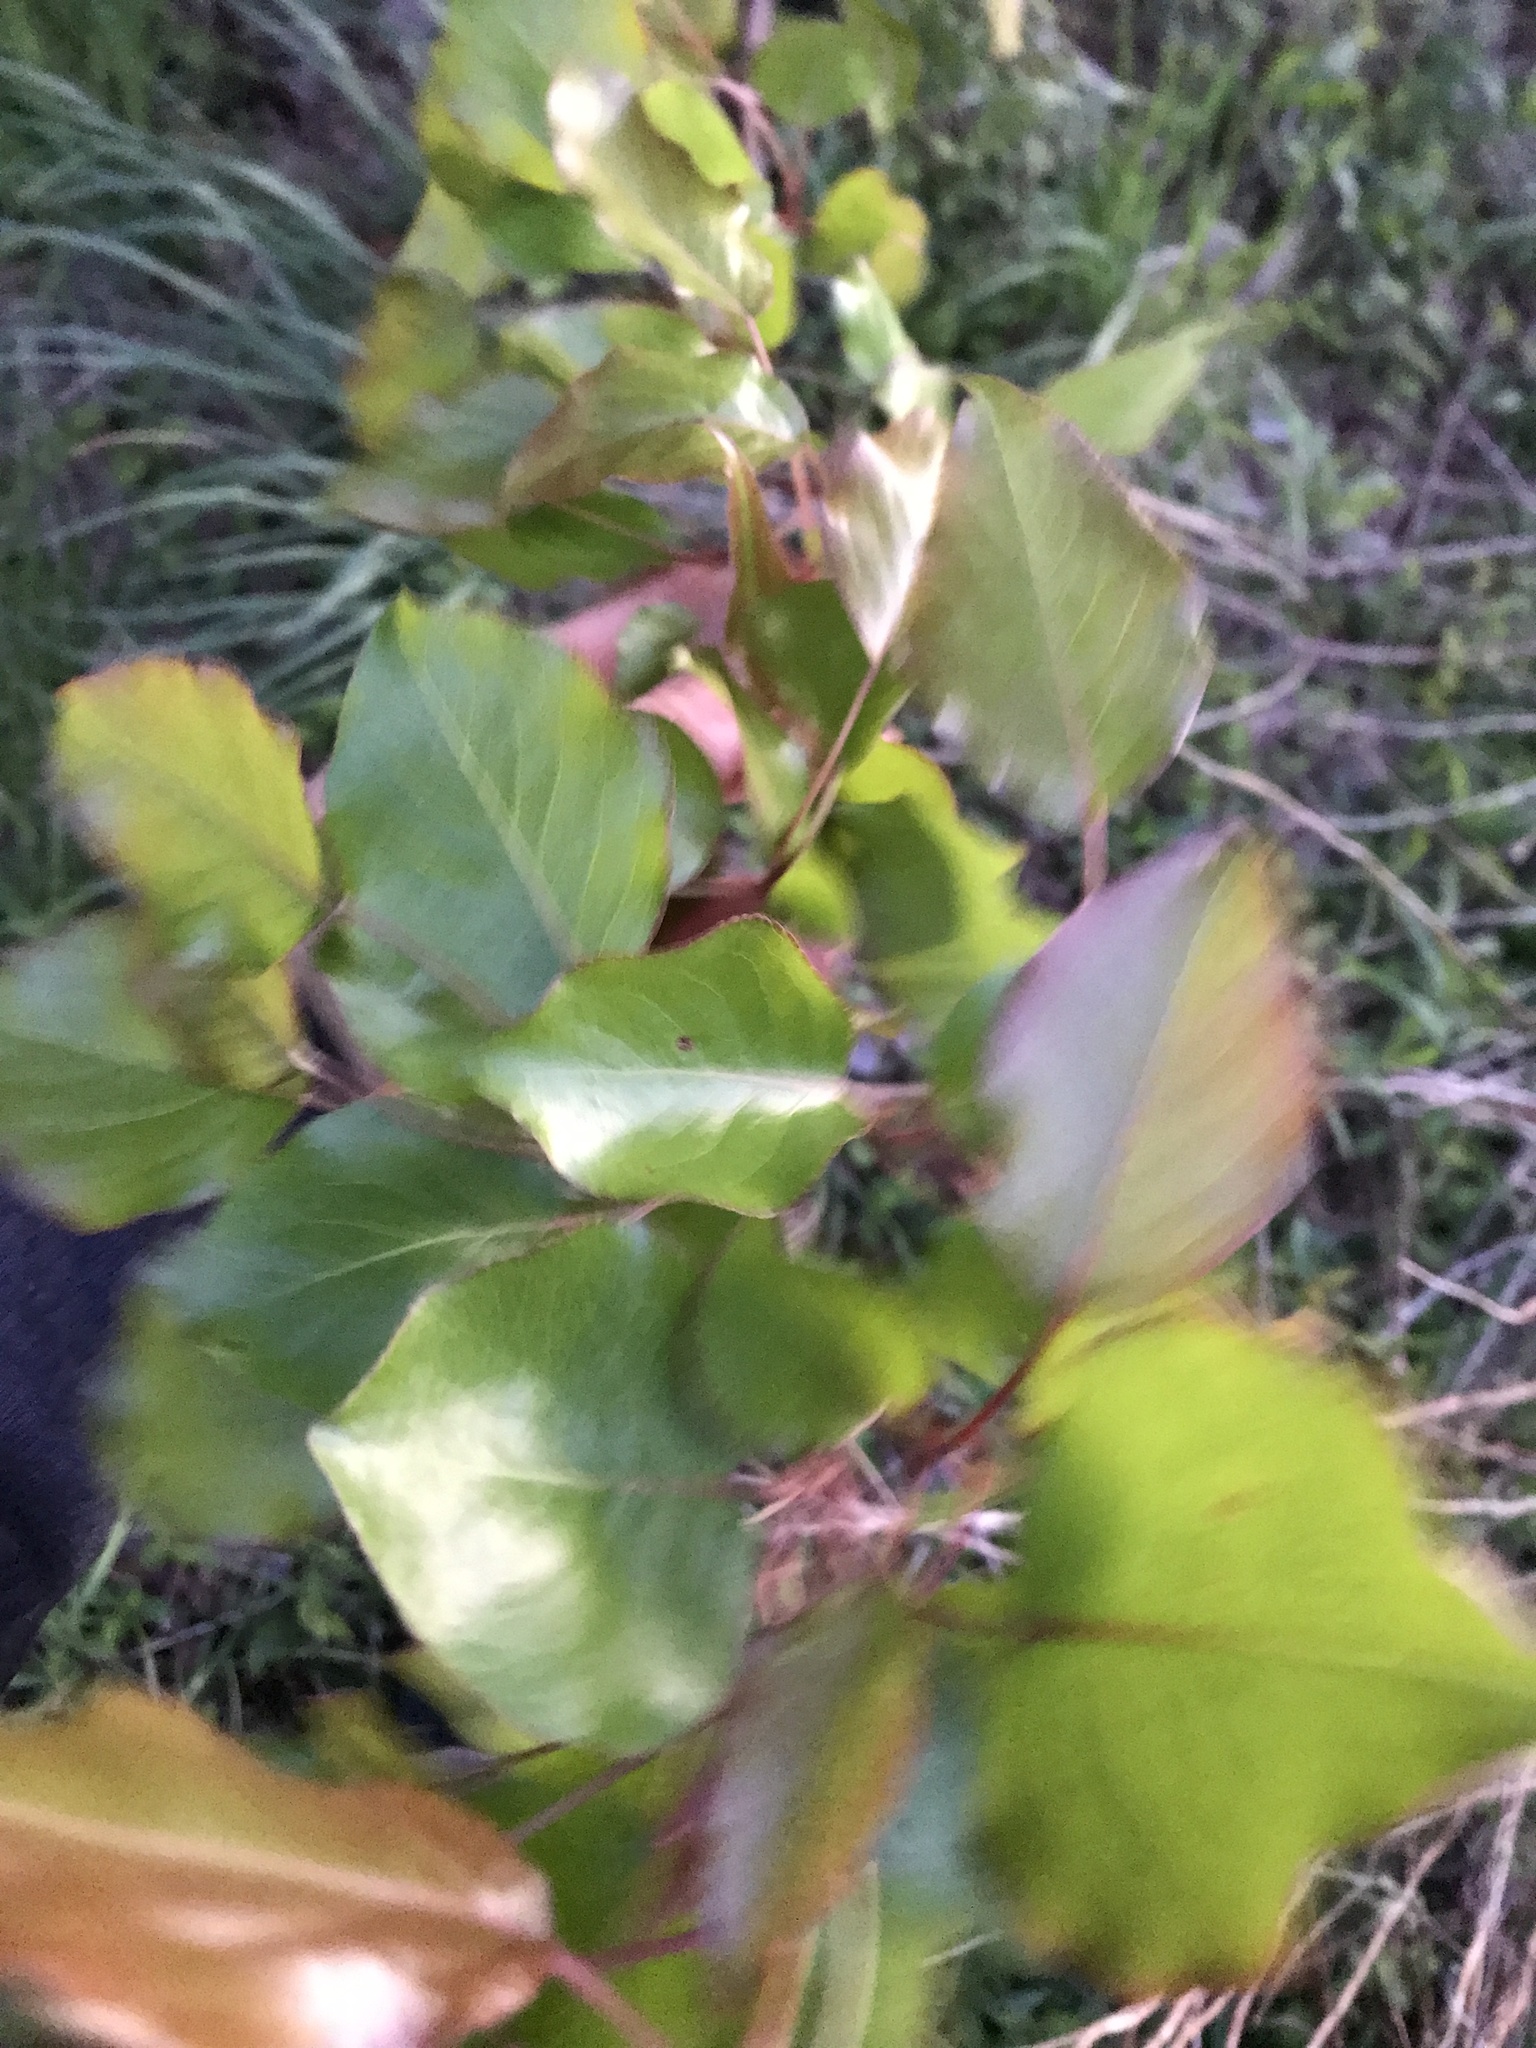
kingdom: Plantae
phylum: Tracheophyta
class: Magnoliopsida
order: Rosales
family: Rosaceae
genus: Pyrus
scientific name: Pyrus calleryana
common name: Callery pear
